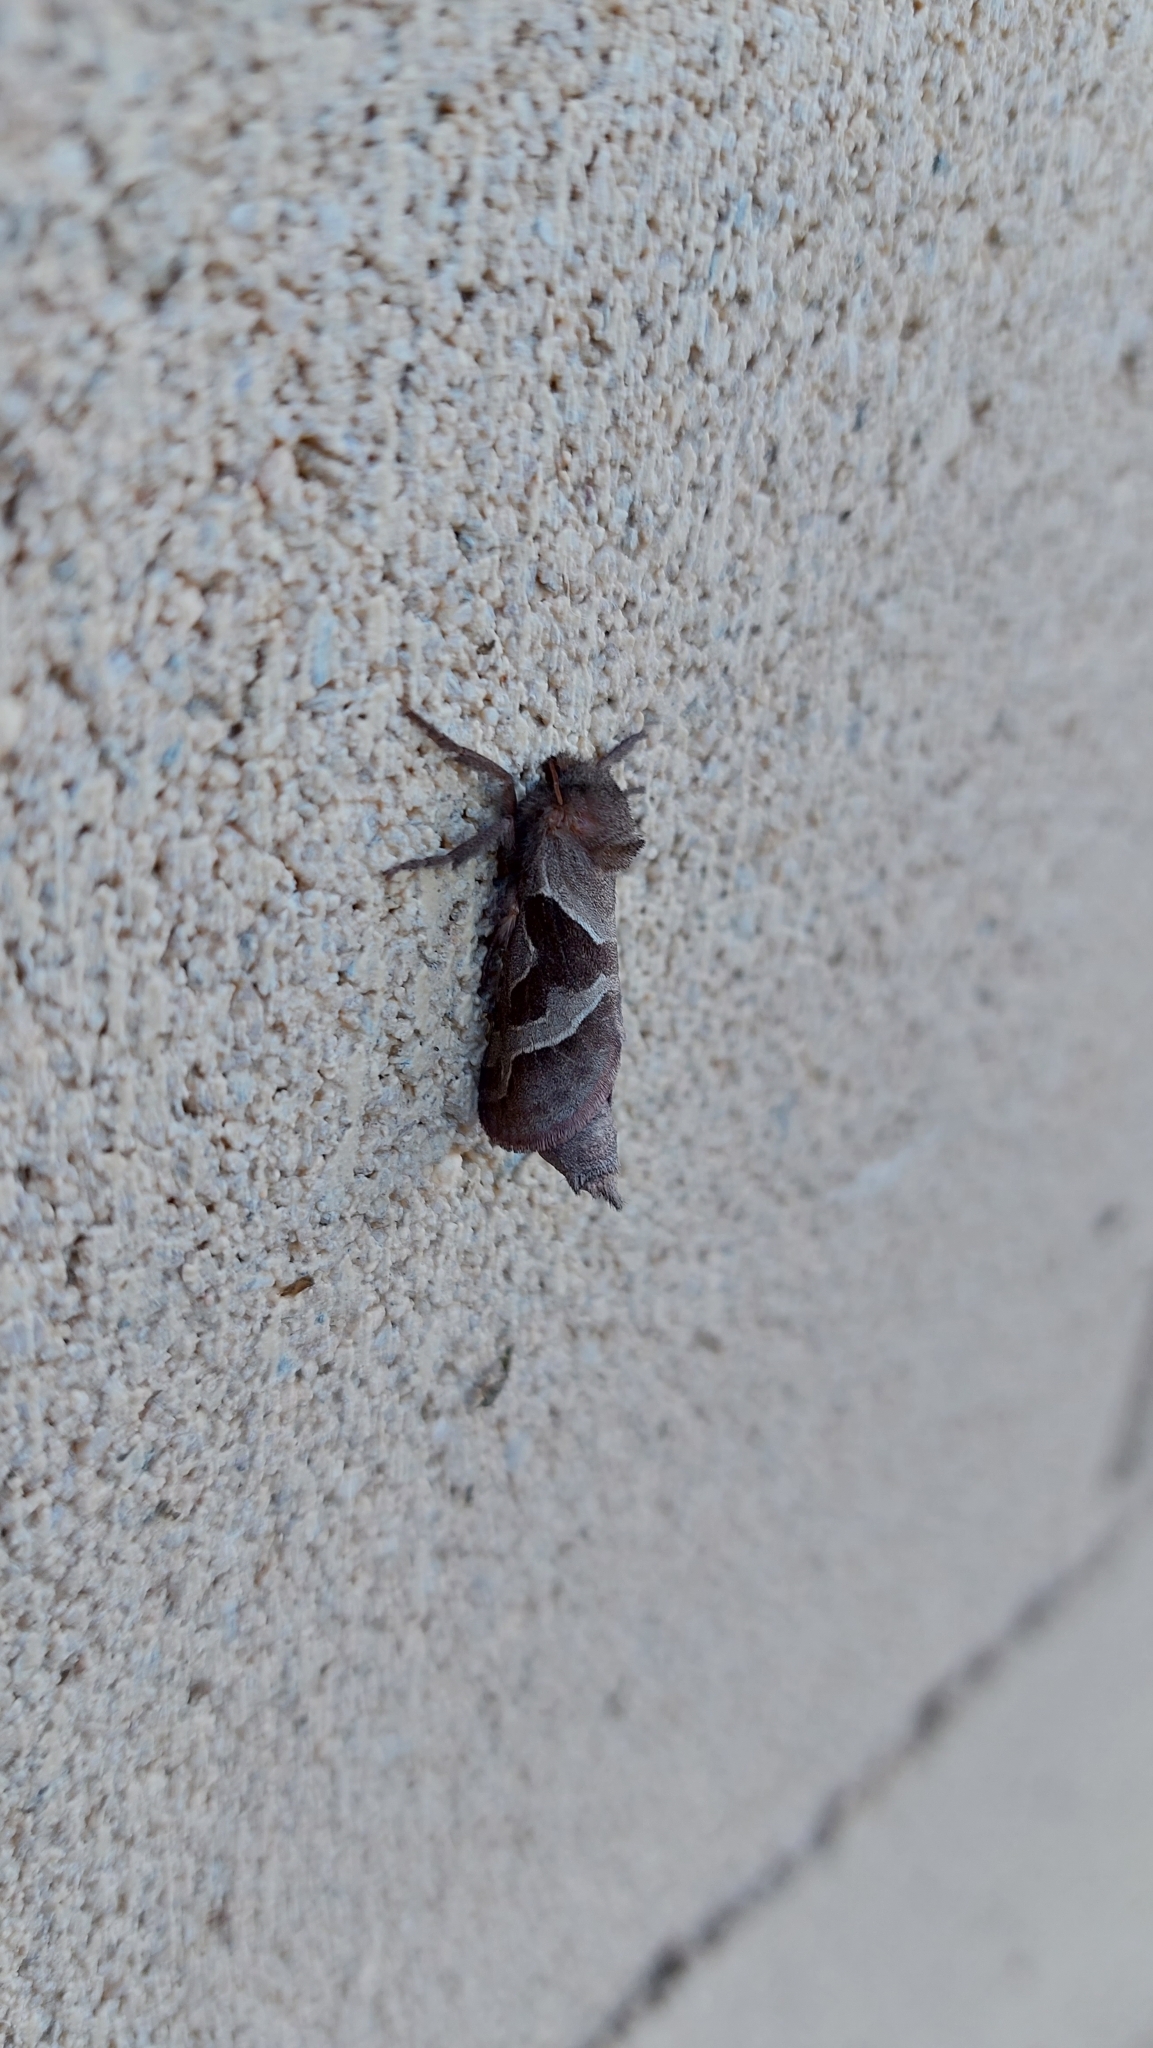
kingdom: Animalia
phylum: Arthropoda
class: Insecta
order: Lepidoptera
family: Hepialidae
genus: Triodia
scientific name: Triodia sylvina
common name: Orange swift
